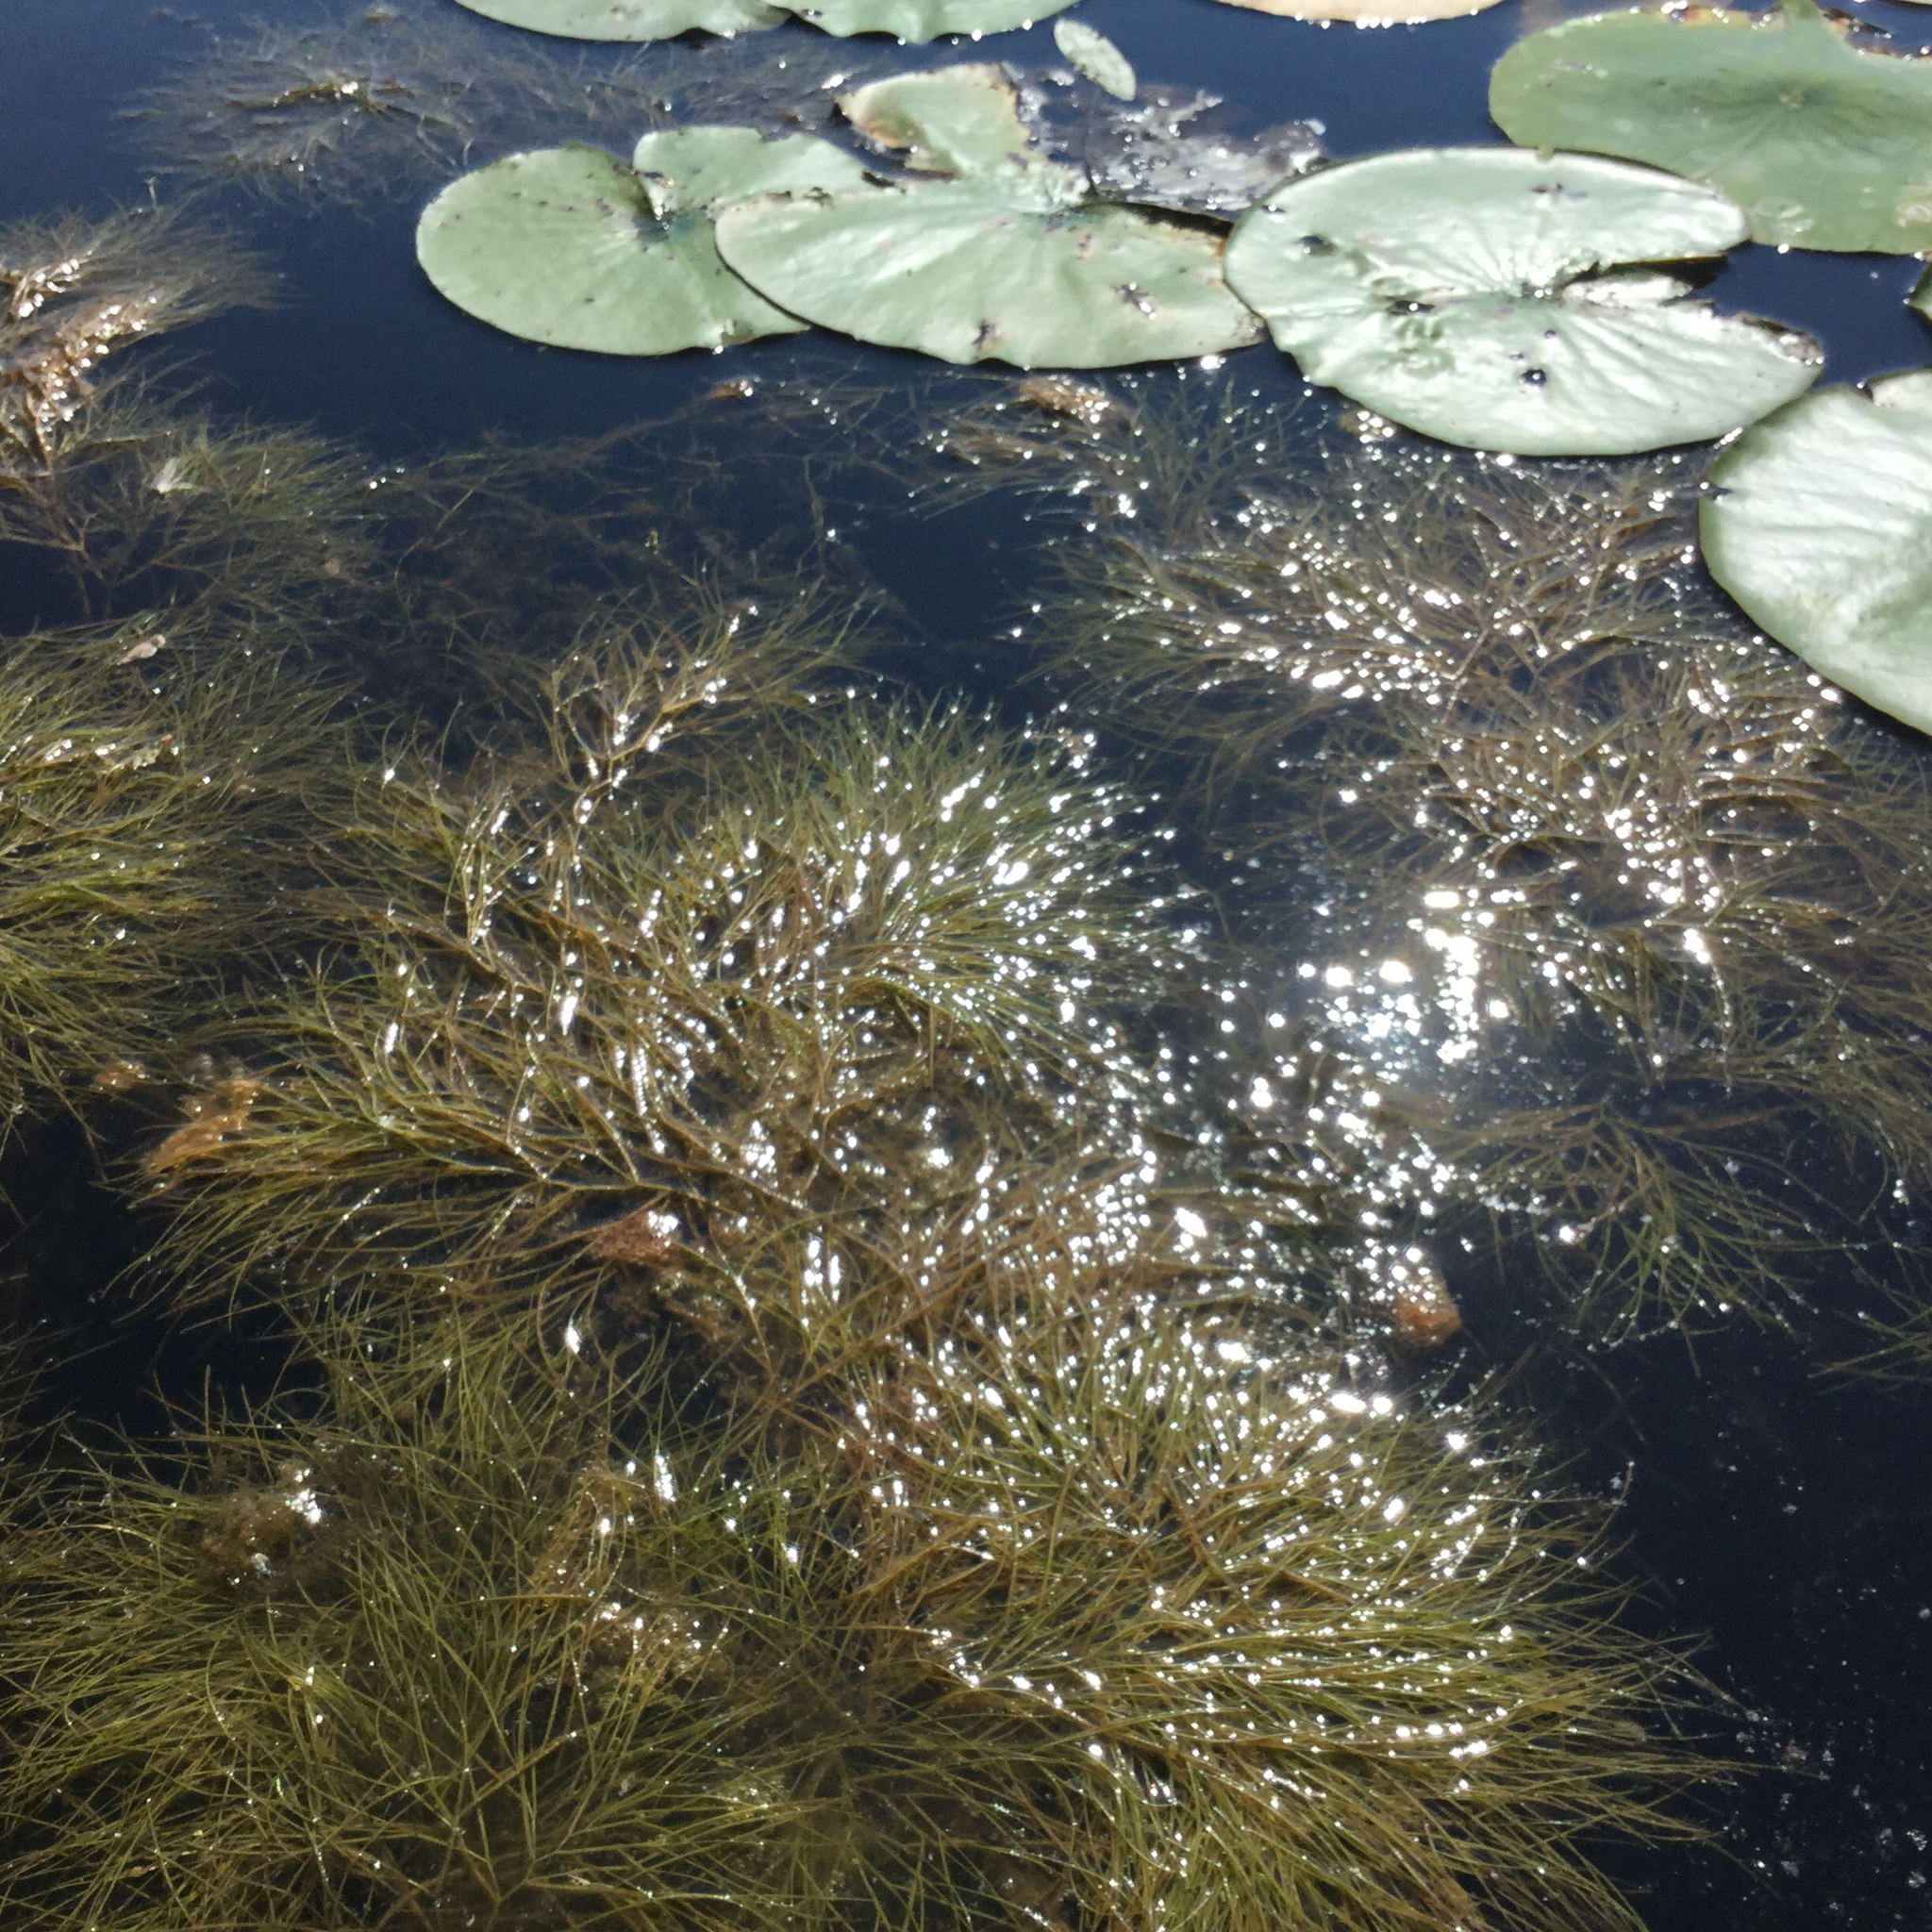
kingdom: Plantae
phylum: Tracheophyta
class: Liliopsida
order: Alismatales
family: Potamogetonaceae
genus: Stuckenia
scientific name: Stuckenia pectinata
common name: Sago pondweed
